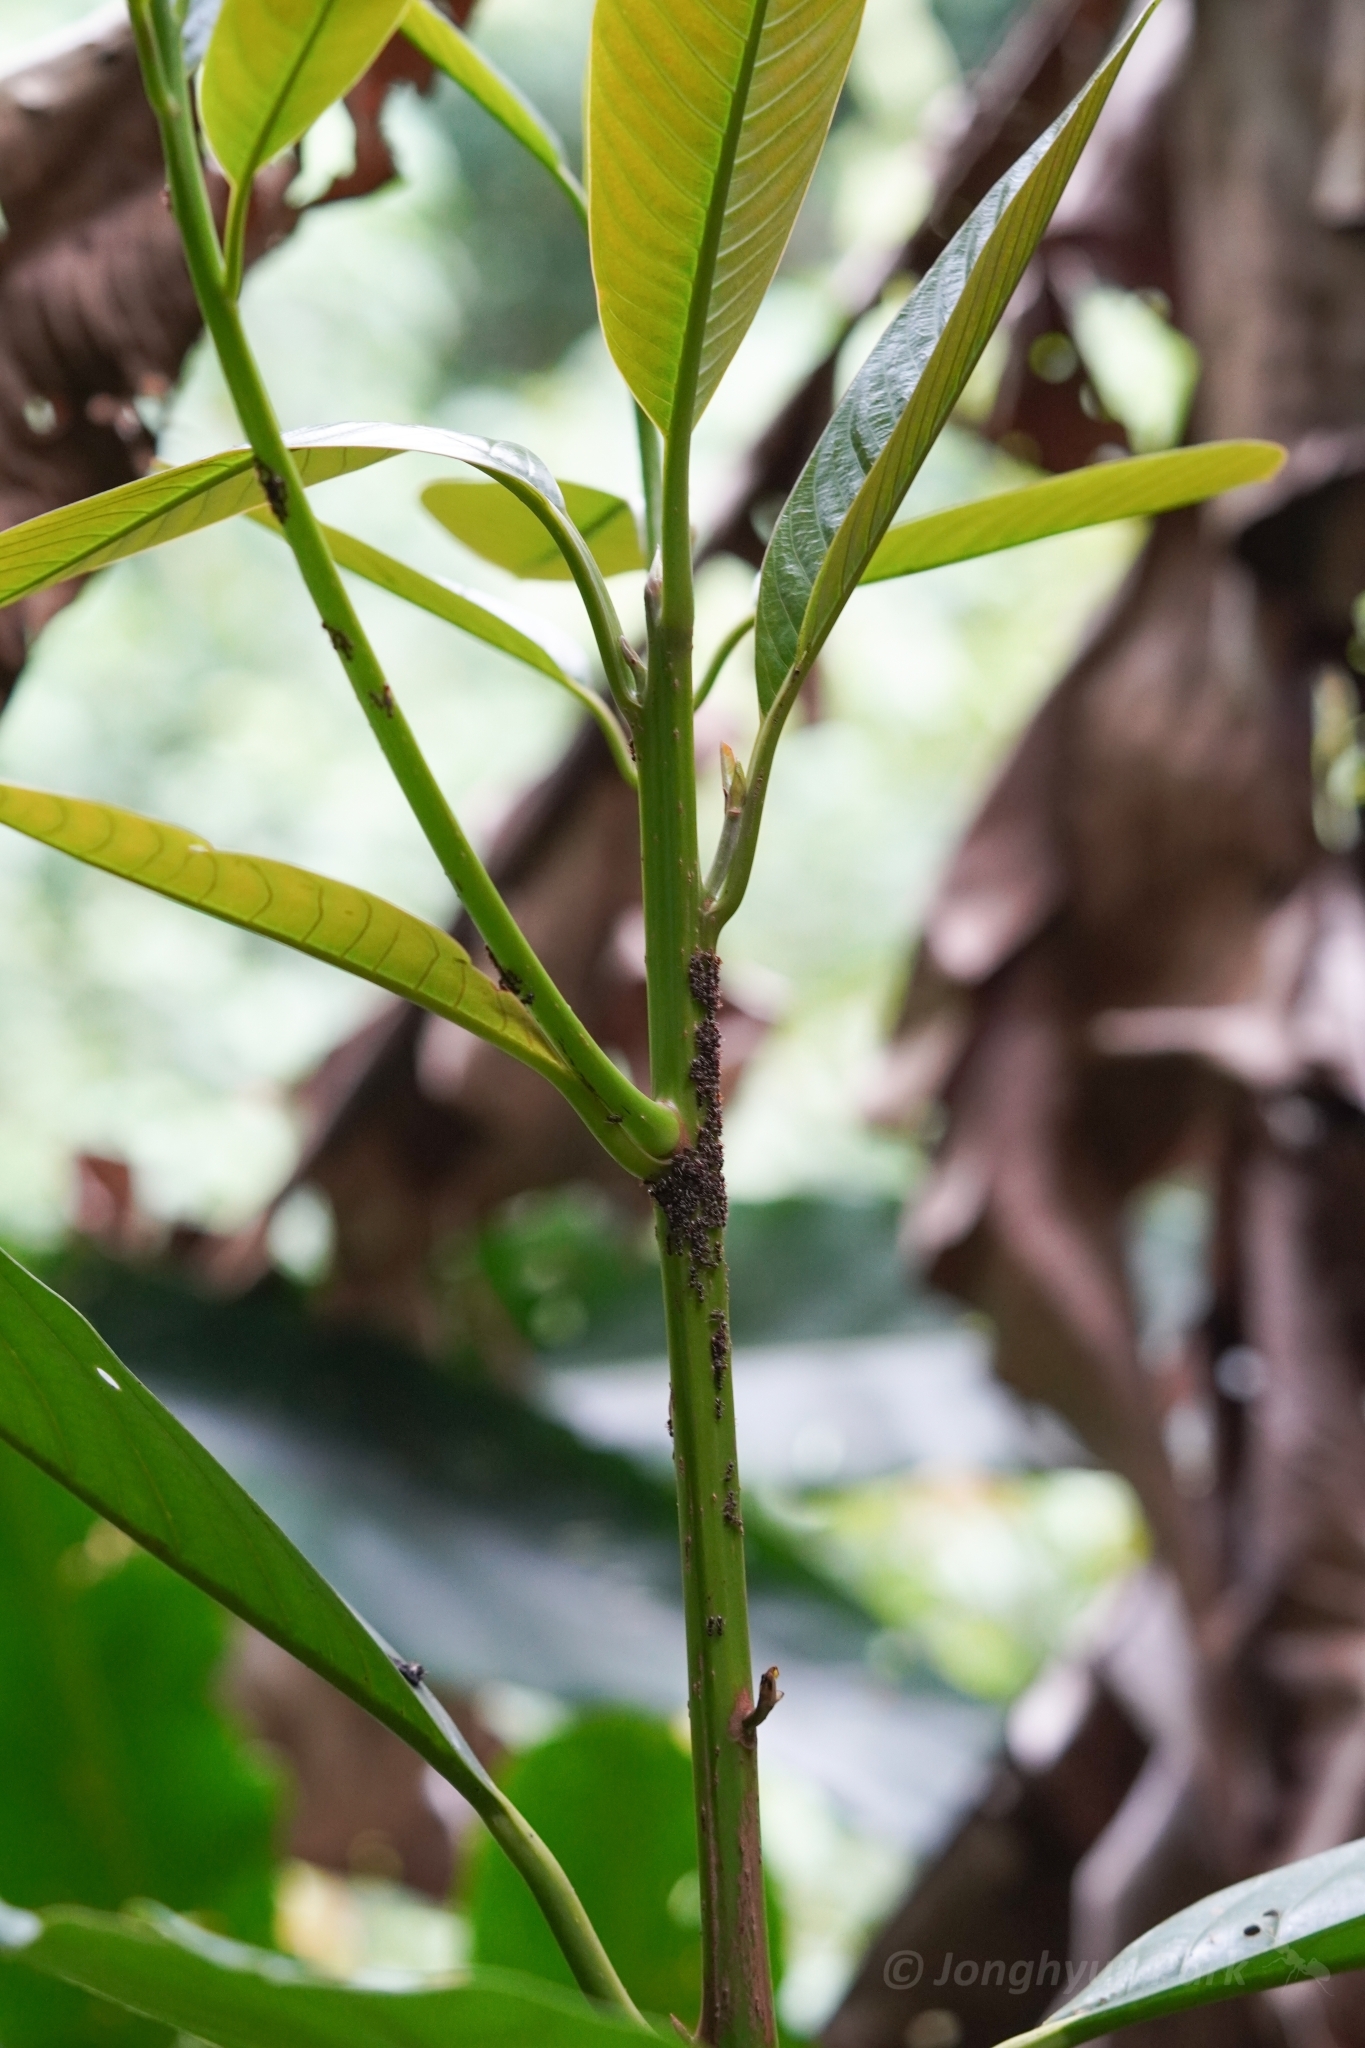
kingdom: Animalia
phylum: Arthropoda
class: Insecta
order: Hymenoptera
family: Formicidae
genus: Dolichoderus
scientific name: Dolichoderus
